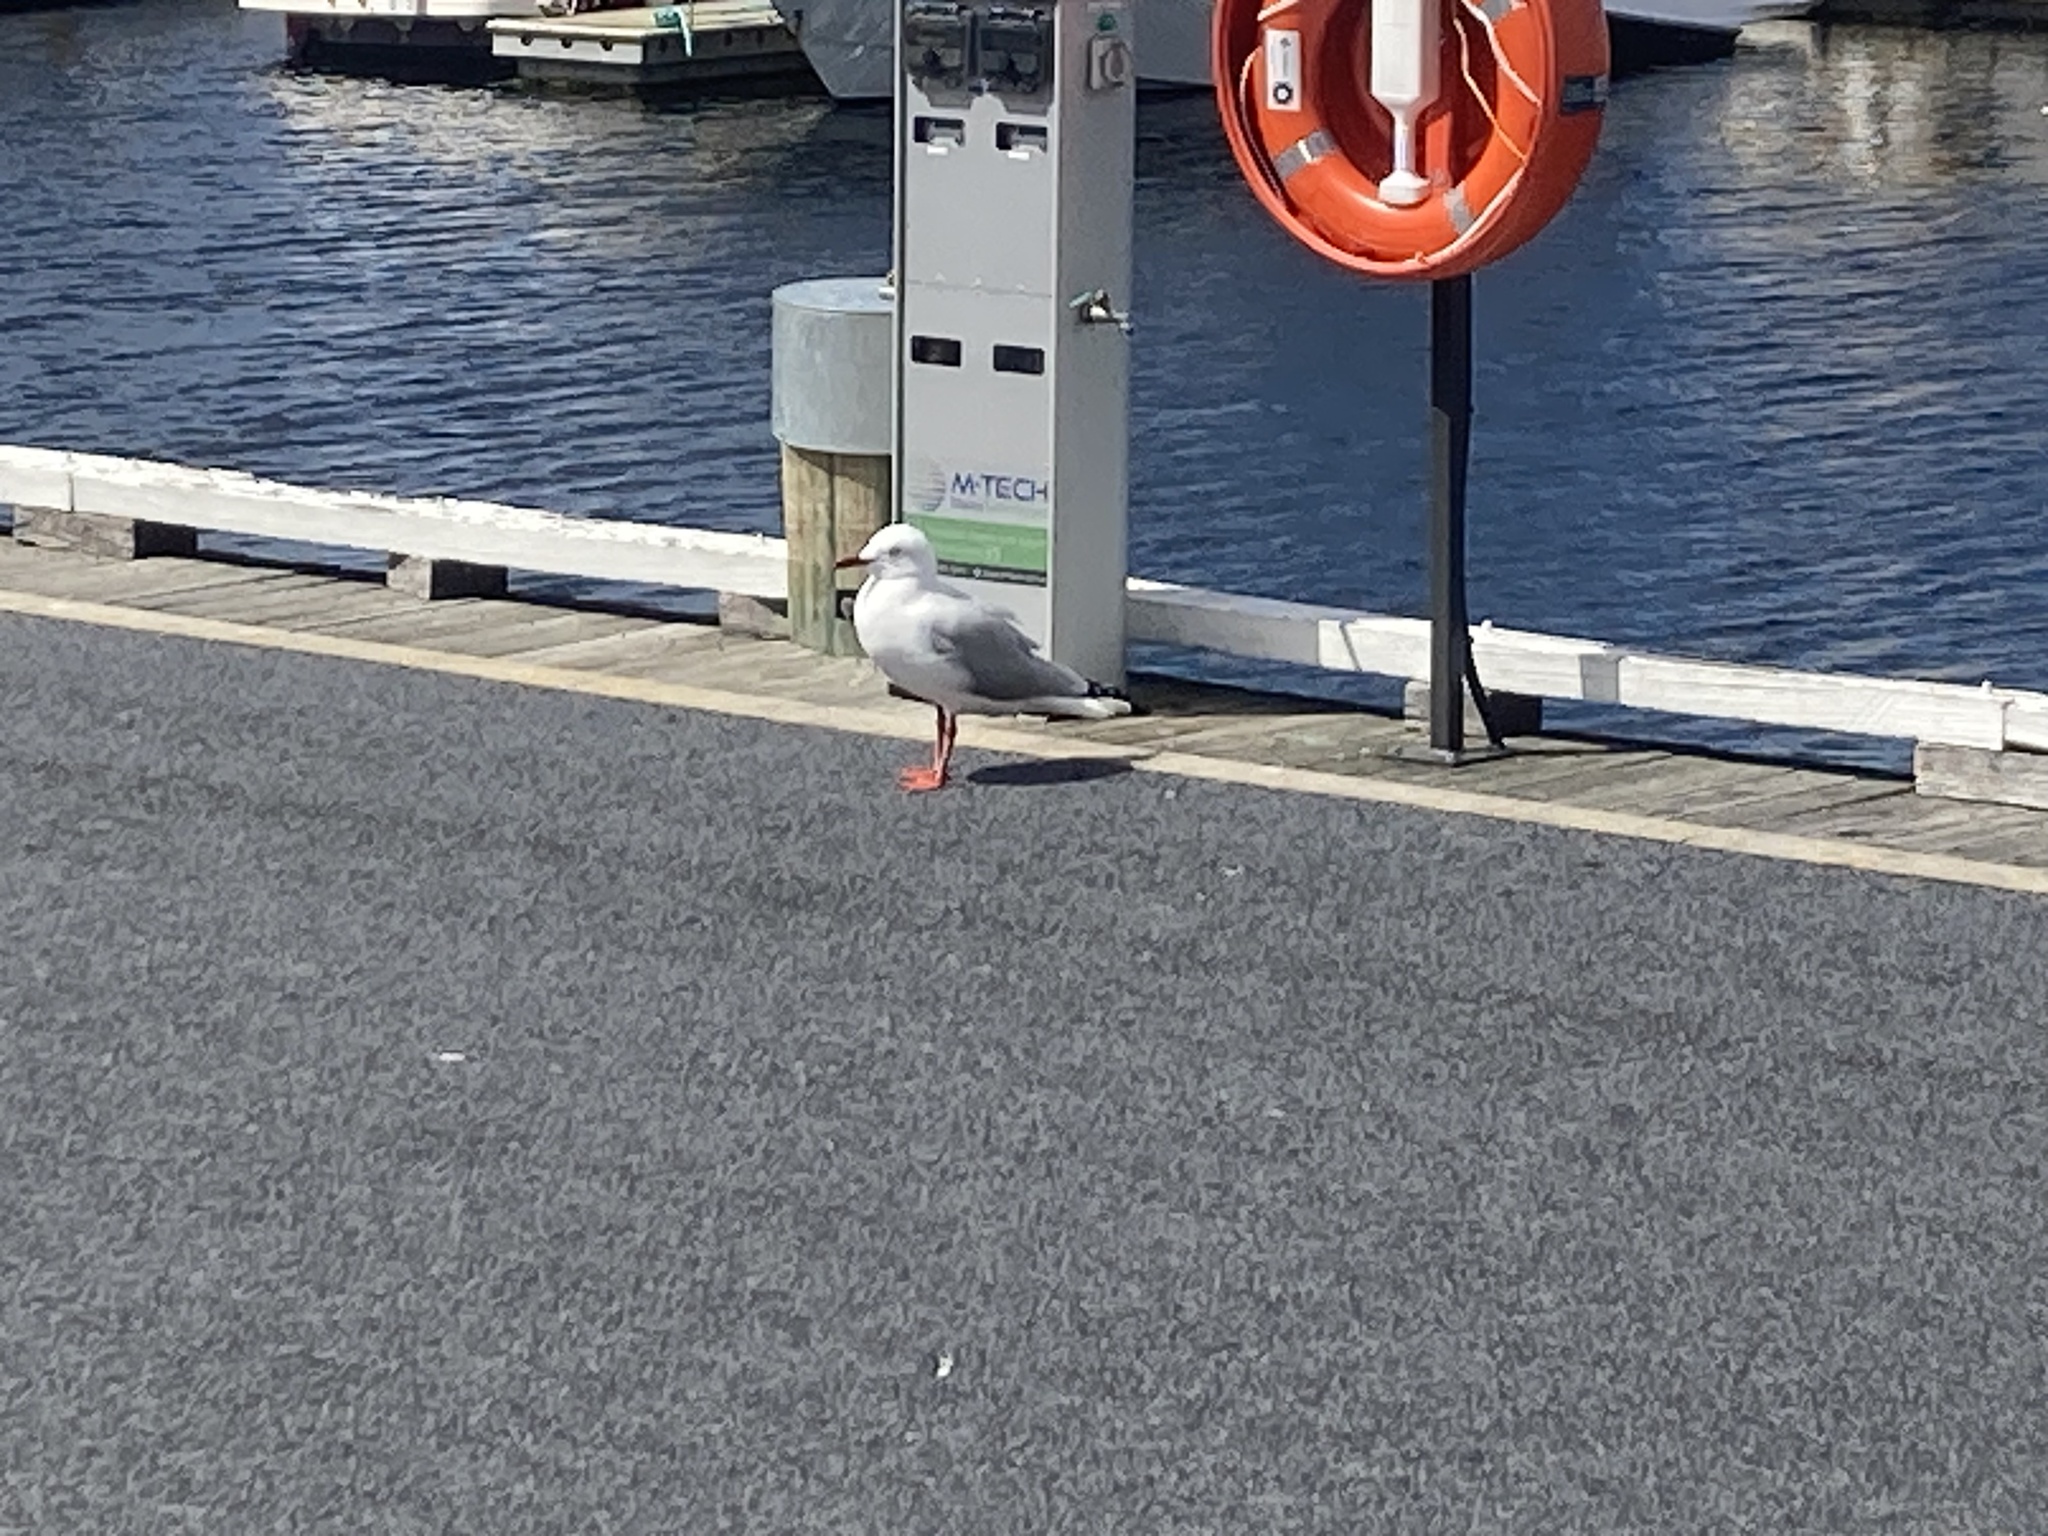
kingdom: Animalia
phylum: Chordata
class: Aves
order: Charadriiformes
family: Laridae
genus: Chroicocephalus
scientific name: Chroicocephalus novaehollandiae
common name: Silver gull
